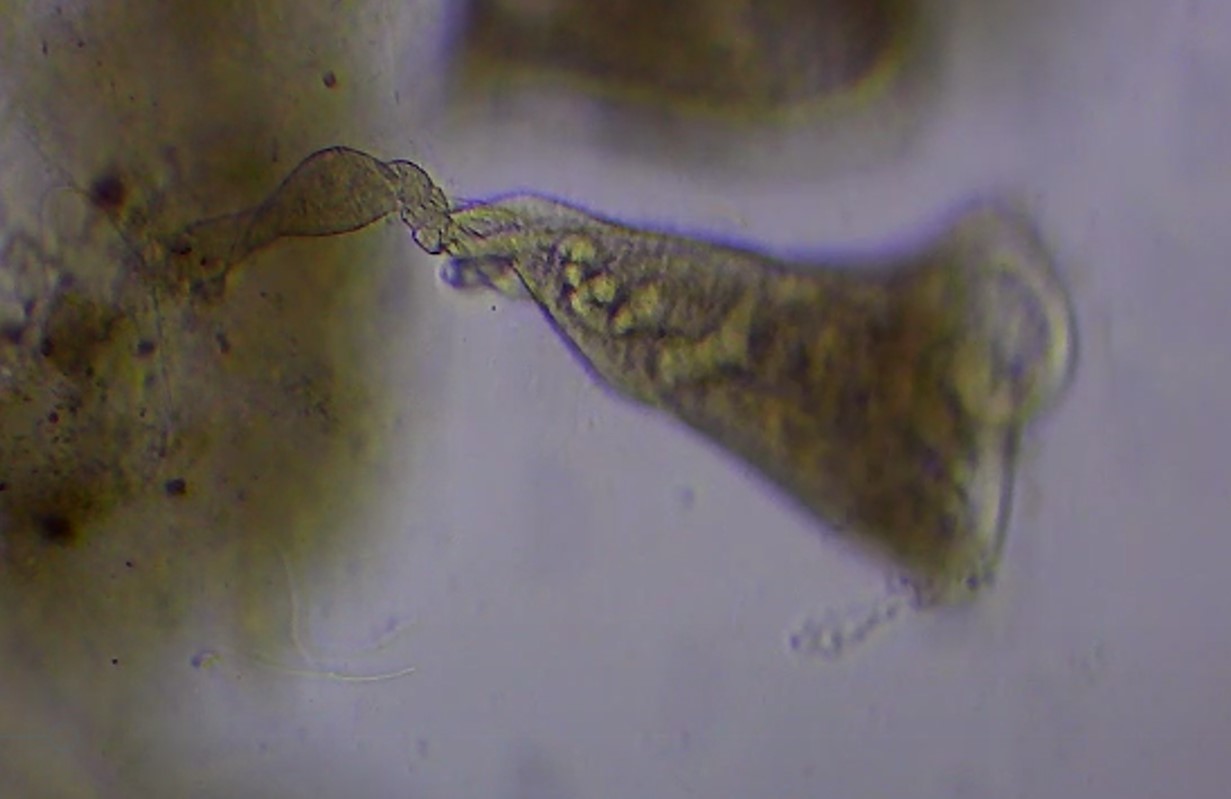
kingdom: Chromista
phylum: Ciliophora
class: Heterotrichea
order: Heterotrichida
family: Stentoridae
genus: Stentor
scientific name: Stentor roeselii
